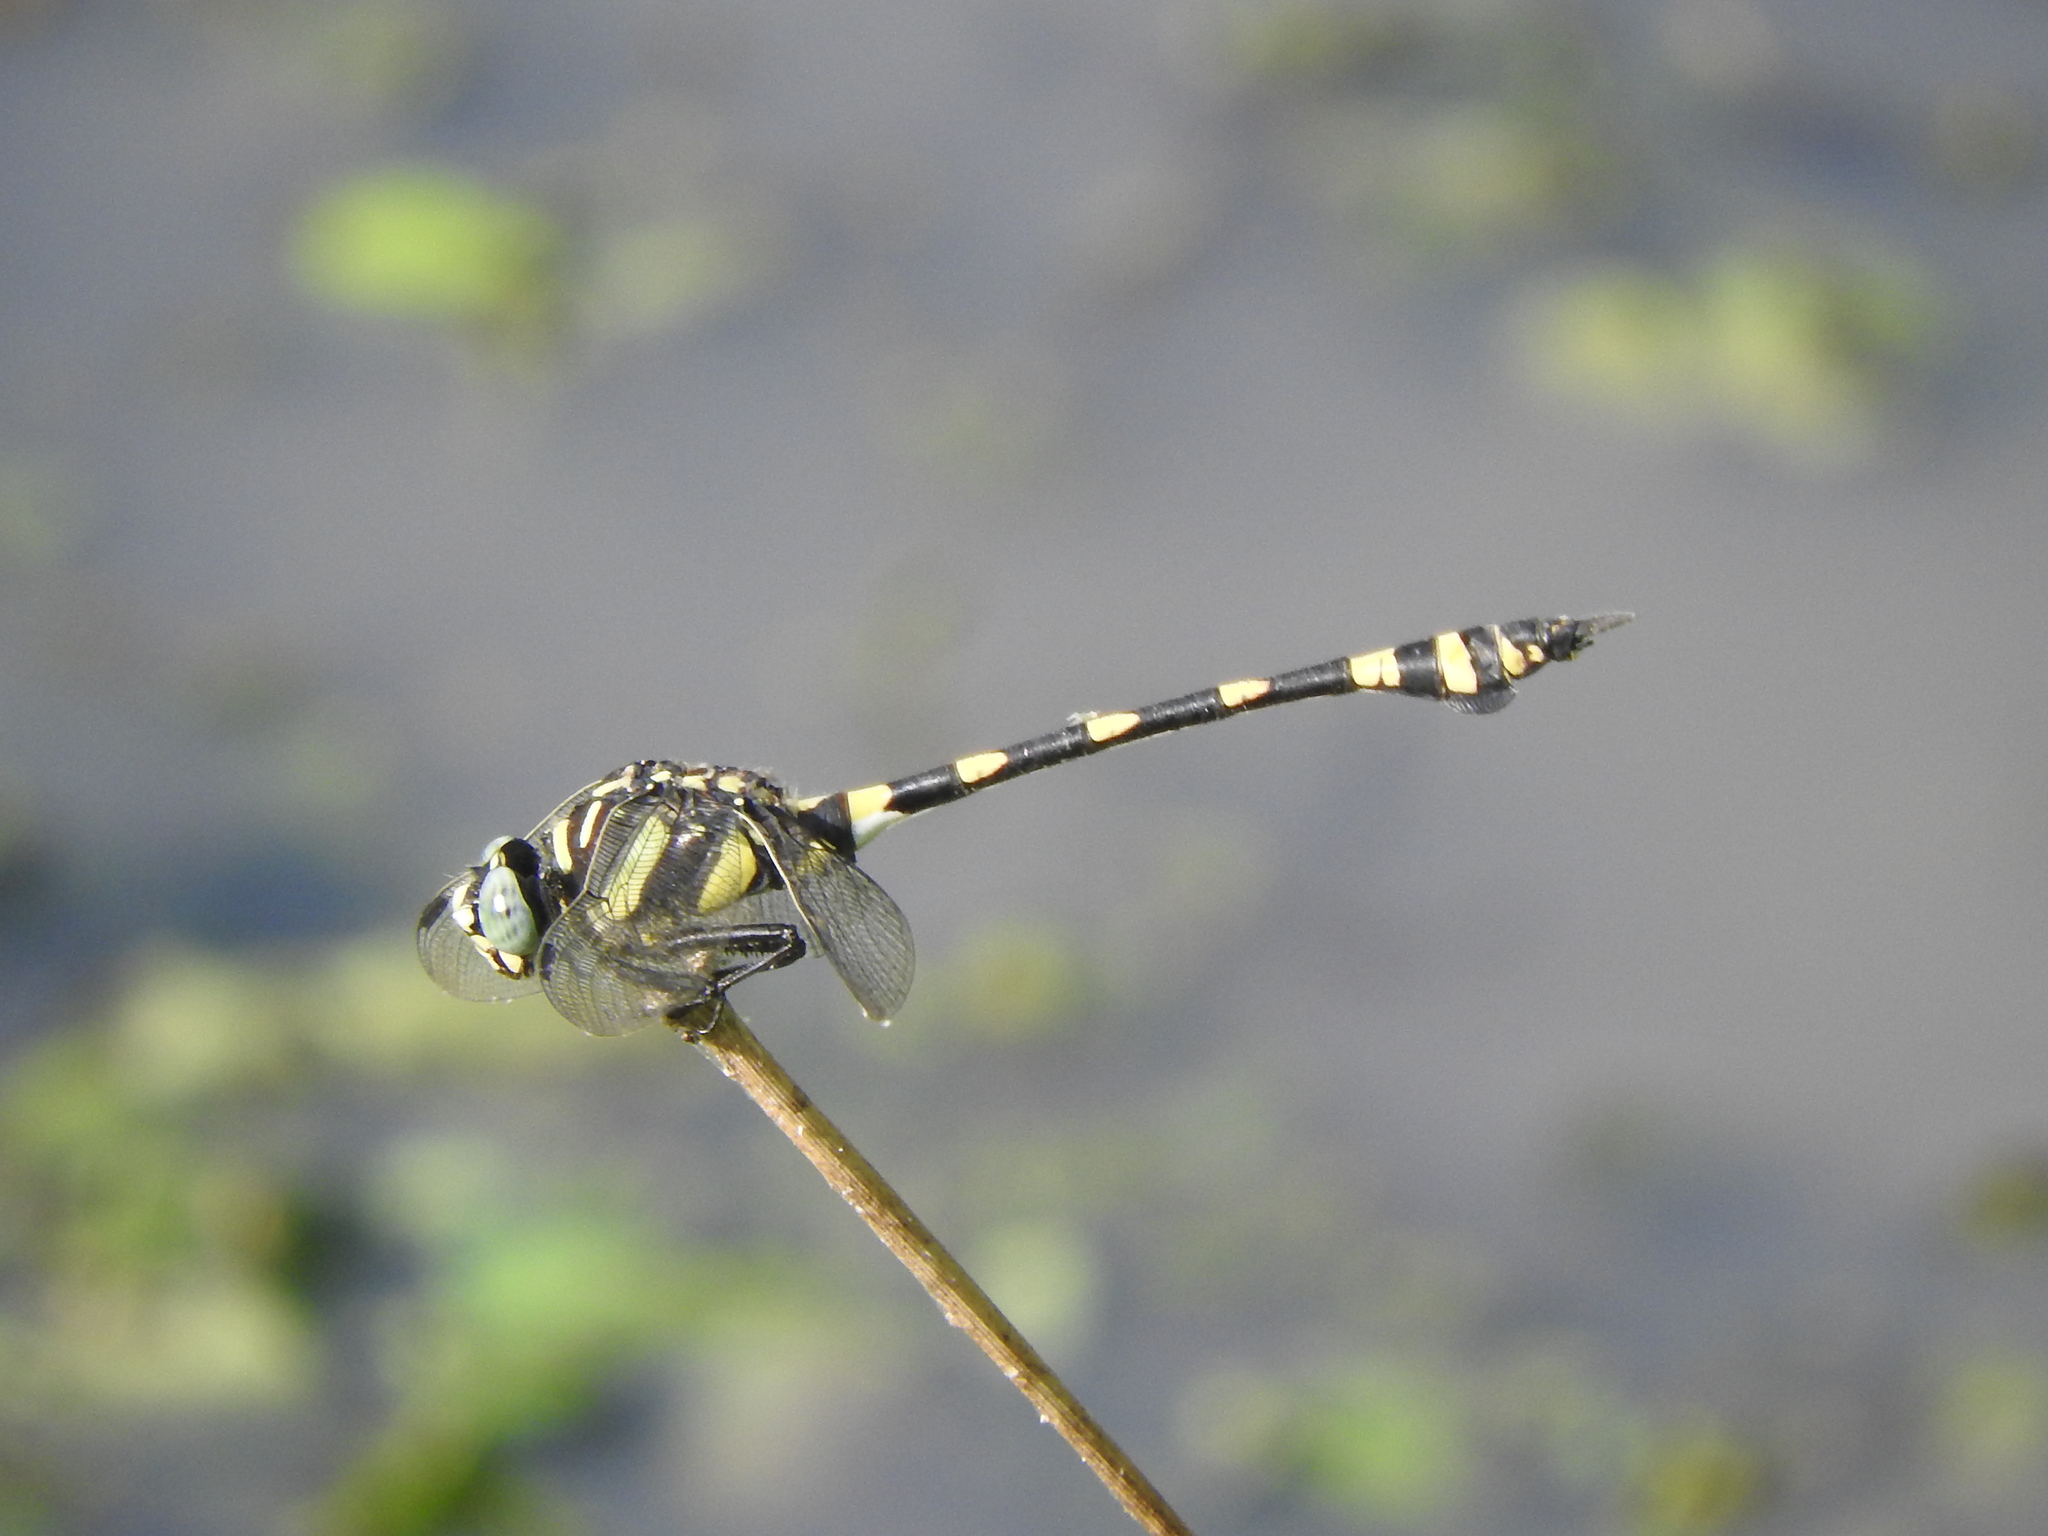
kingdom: Animalia
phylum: Arthropoda
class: Insecta
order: Odonata
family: Gomphidae
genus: Ictinogomphus
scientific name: Ictinogomphus rapax
